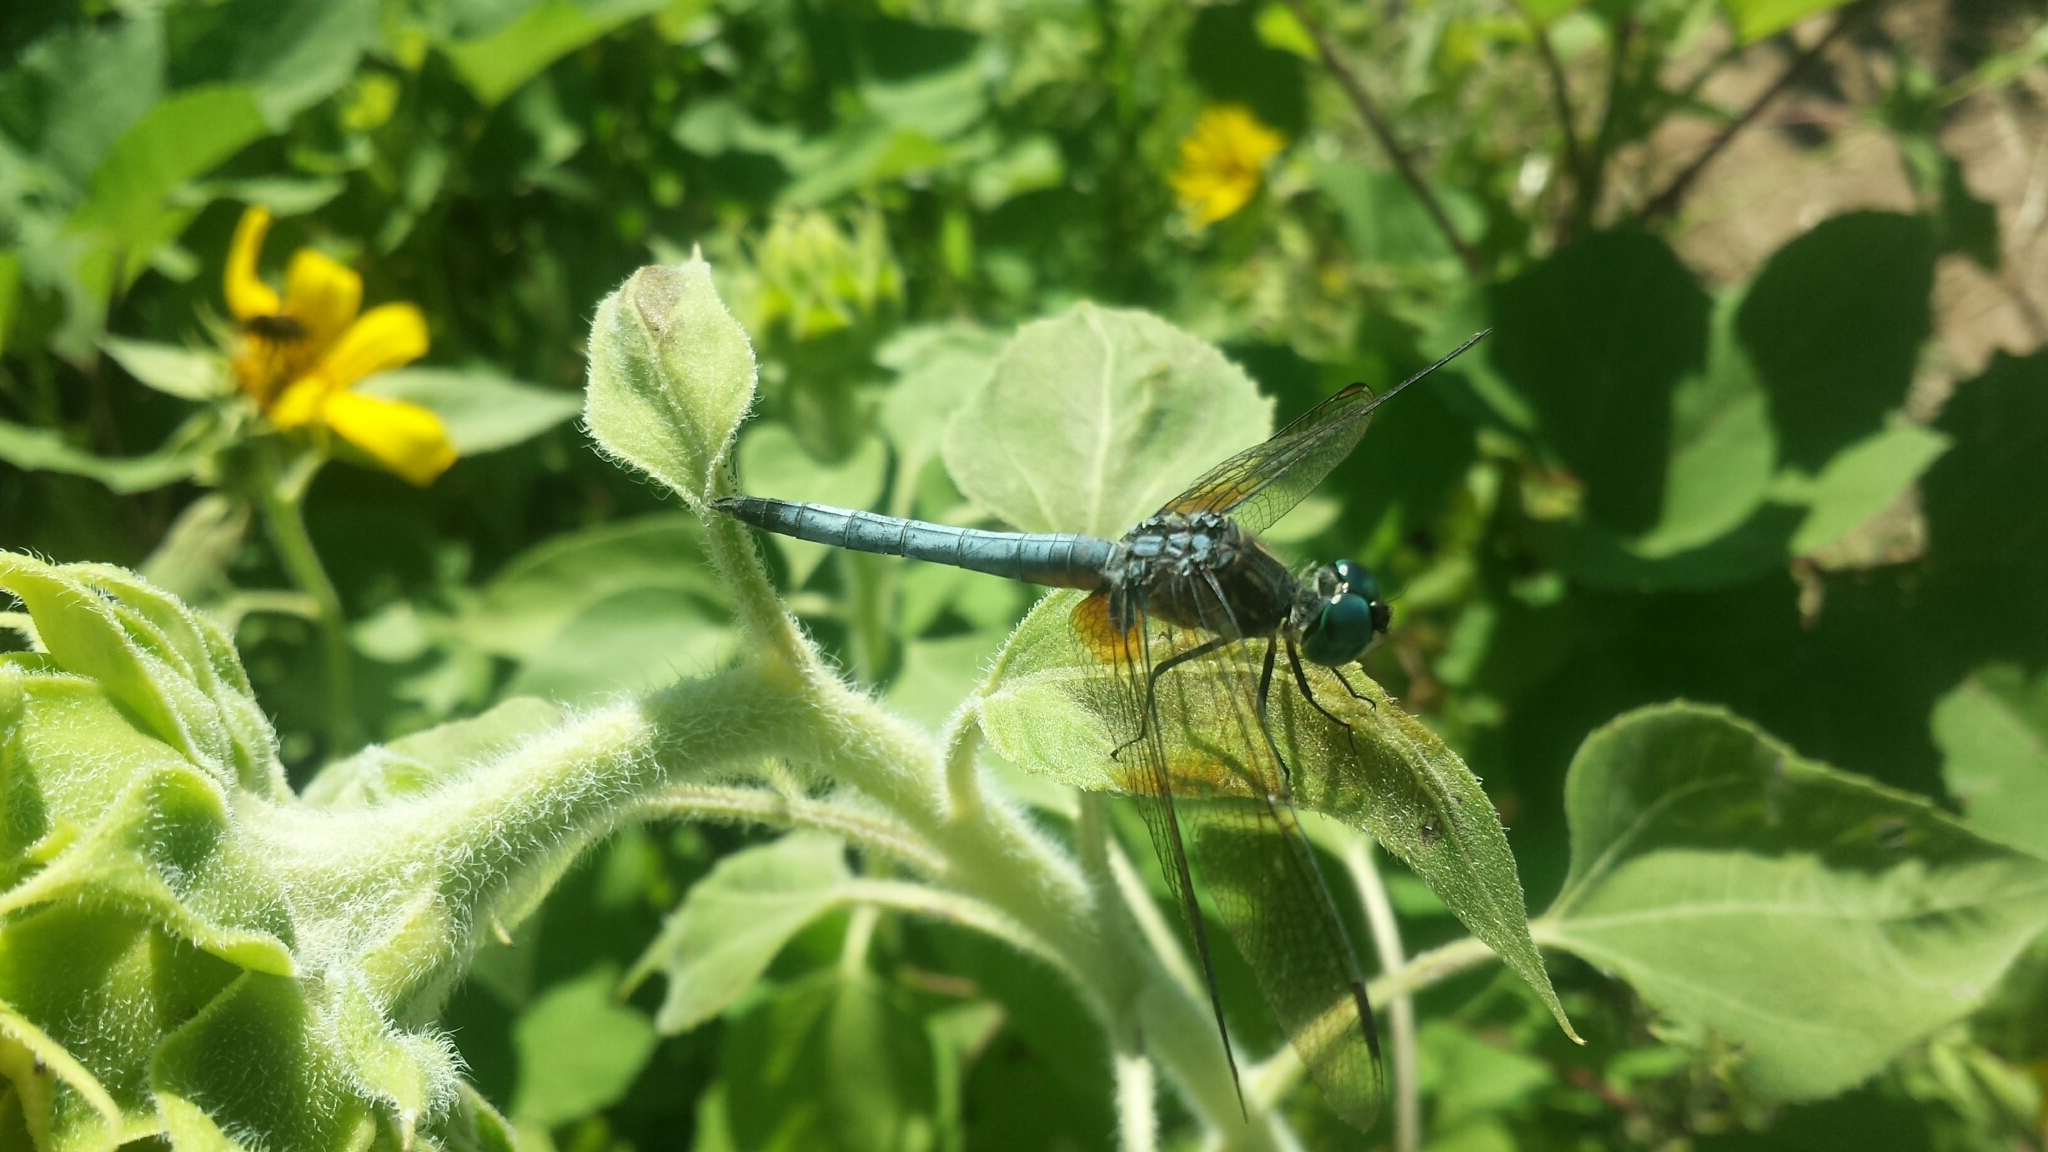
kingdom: Animalia
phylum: Arthropoda
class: Insecta
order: Odonata
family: Libellulidae
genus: Pachydiplax
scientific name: Pachydiplax longipennis
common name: Blue dasher
